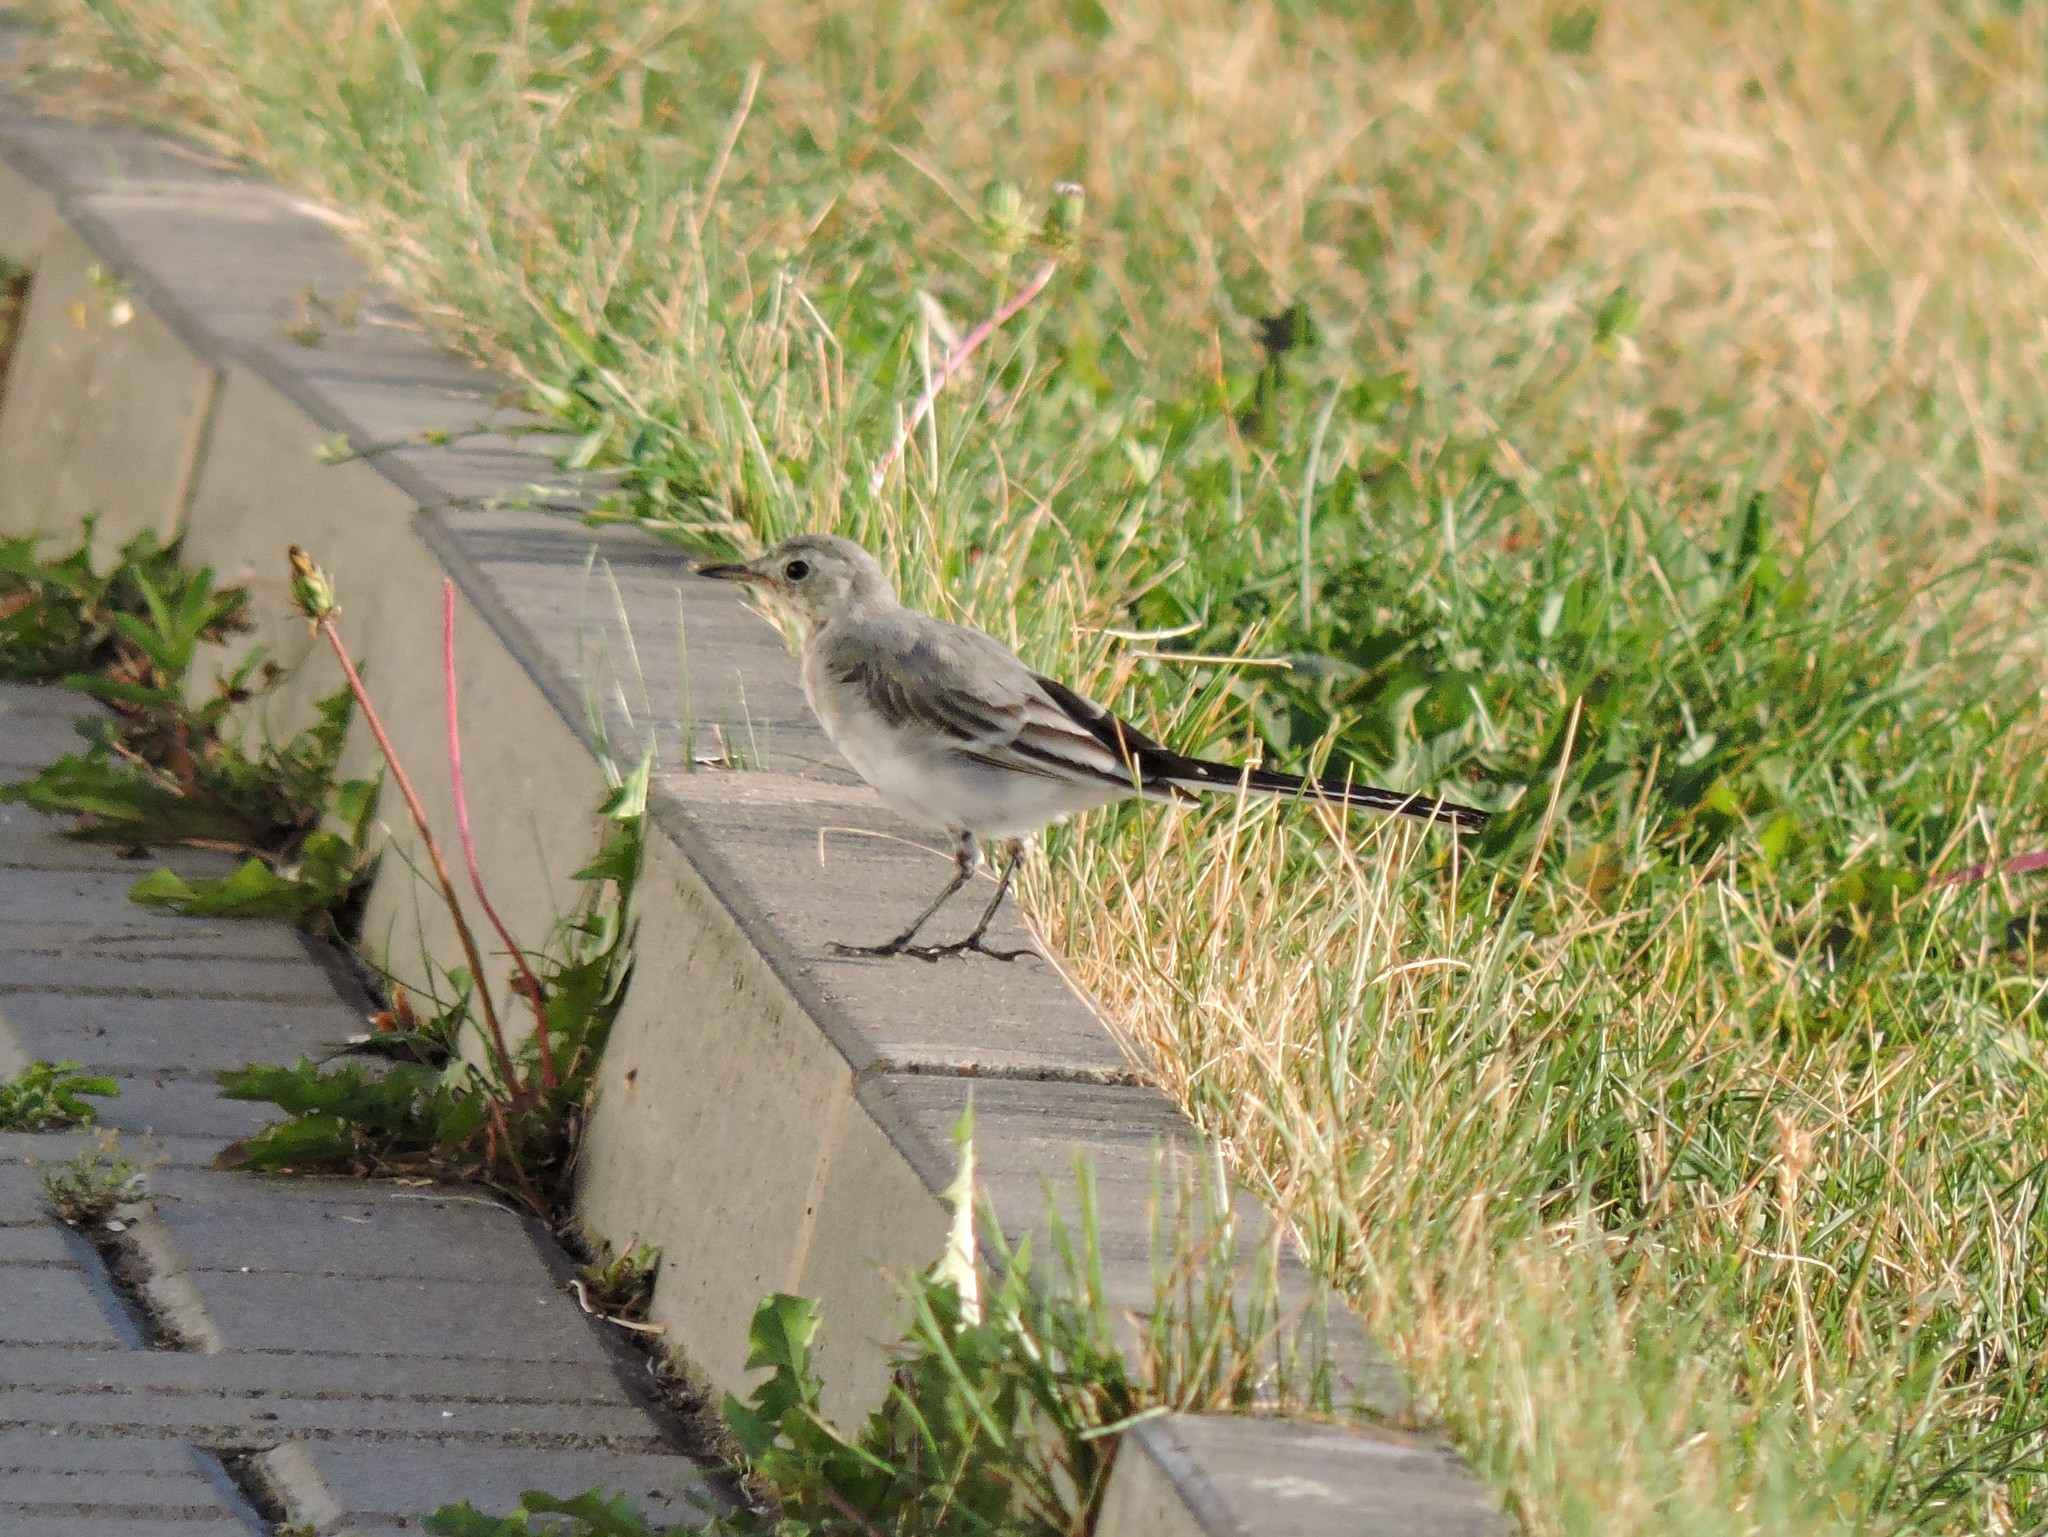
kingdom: Animalia
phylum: Chordata
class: Aves
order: Passeriformes
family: Motacillidae
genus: Motacilla
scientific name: Motacilla alba
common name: White wagtail
